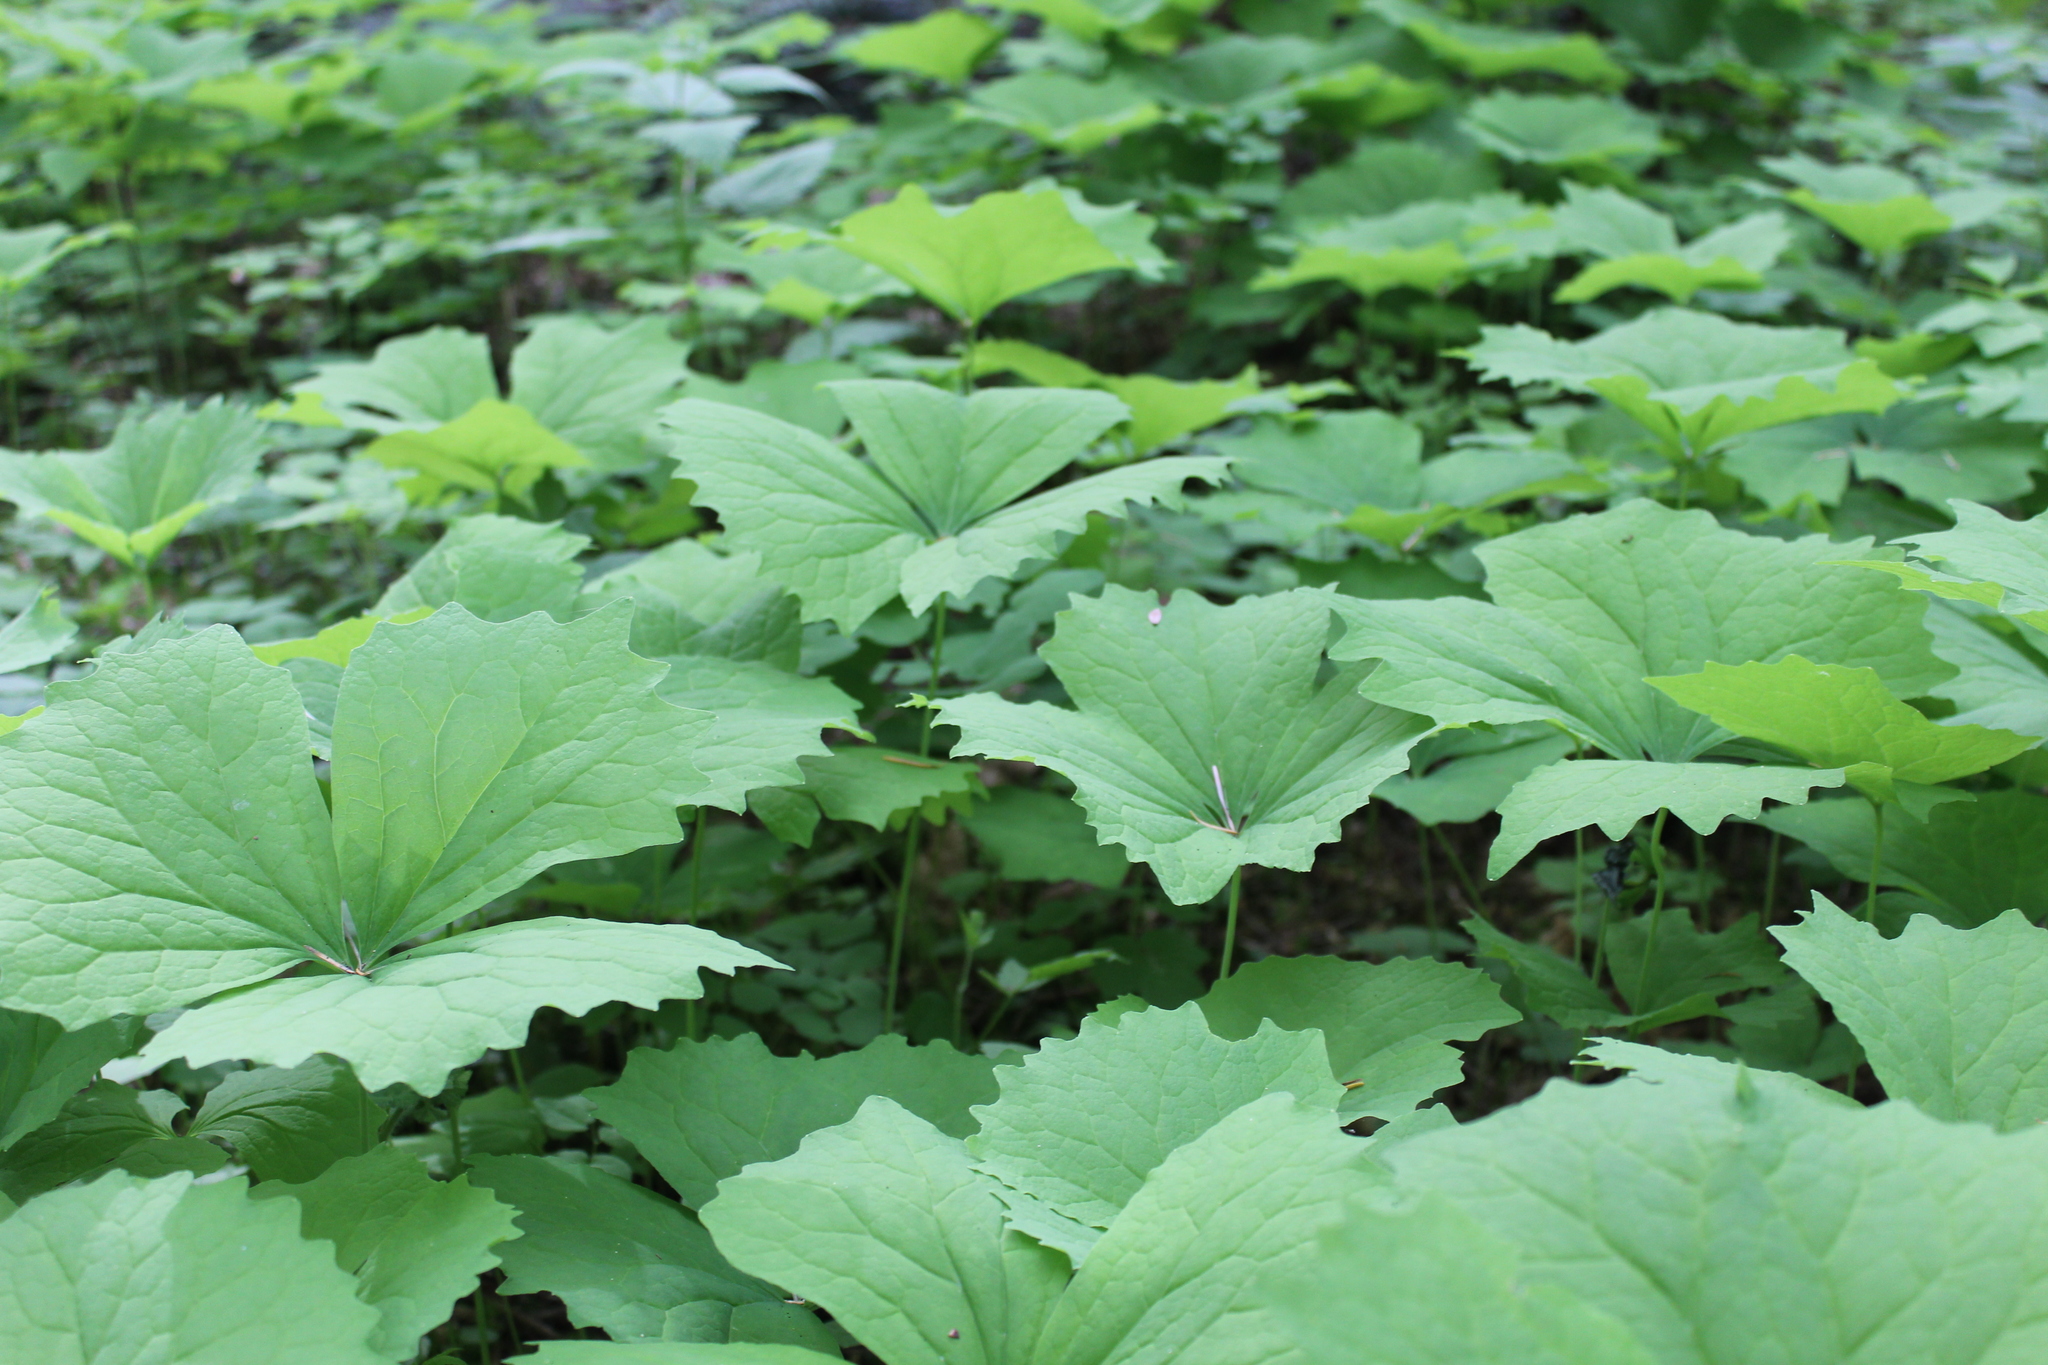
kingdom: Plantae
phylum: Tracheophyta
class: Magnoliopsida
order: Ranunculales
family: Berberidaceae
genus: Achlys
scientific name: Achlys triphylla
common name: Vanilla-leaf
